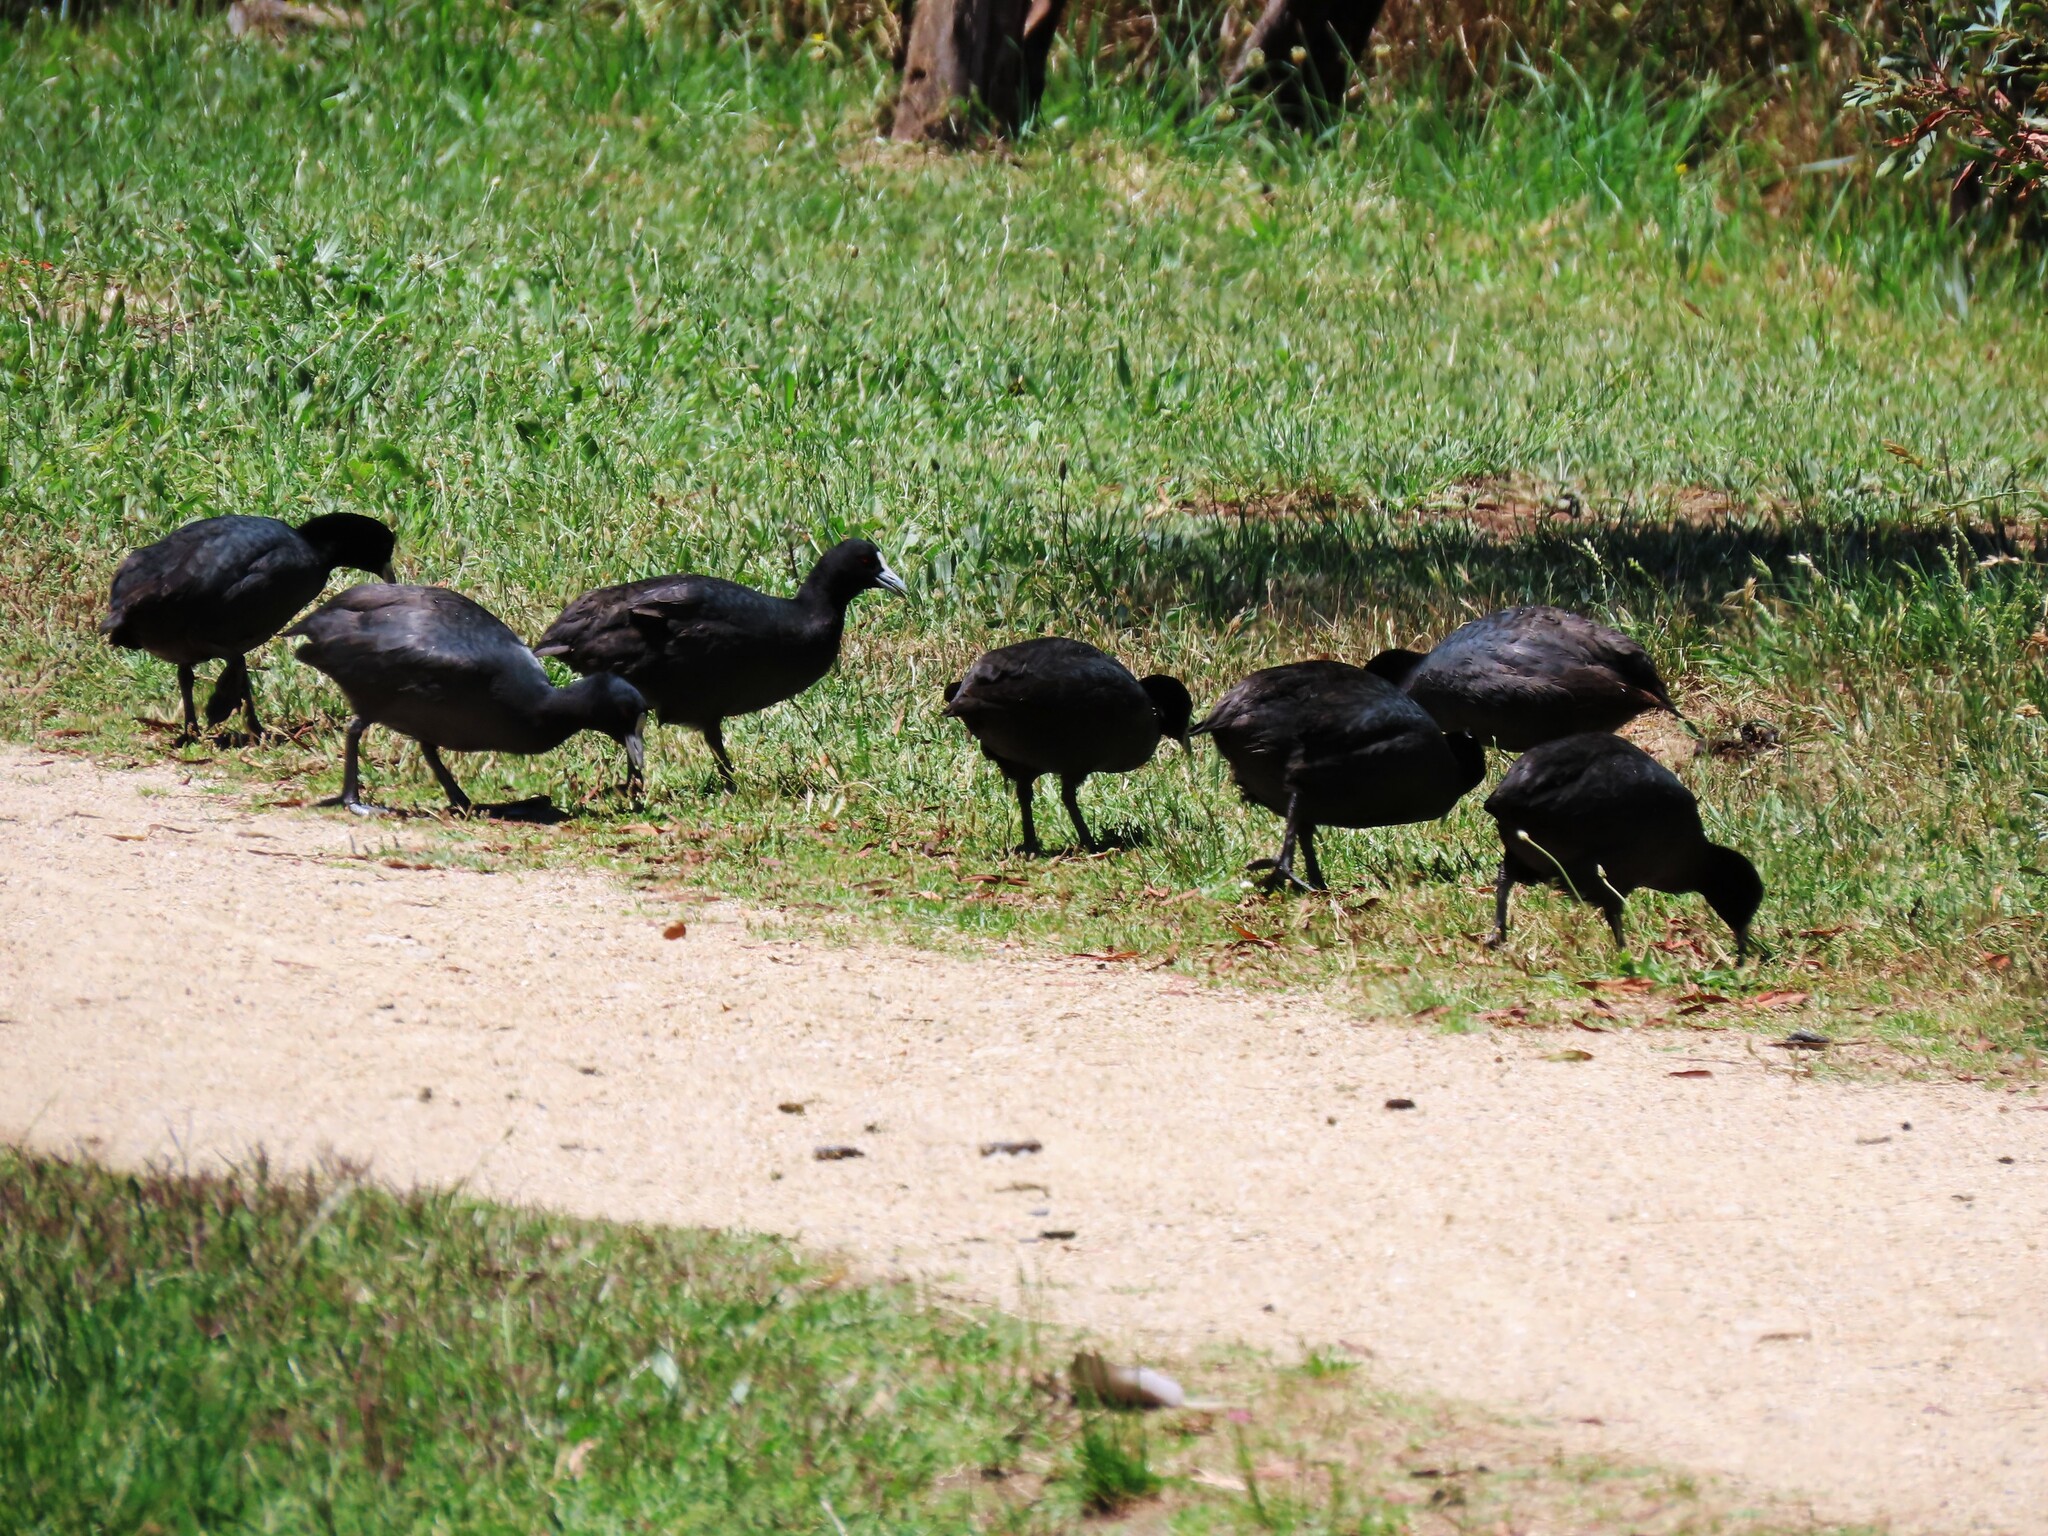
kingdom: Animalia
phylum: Chordata
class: Aves
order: Gruiformes
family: Rallidae
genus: Fulica
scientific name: Fulica atra
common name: Eurasian coot
